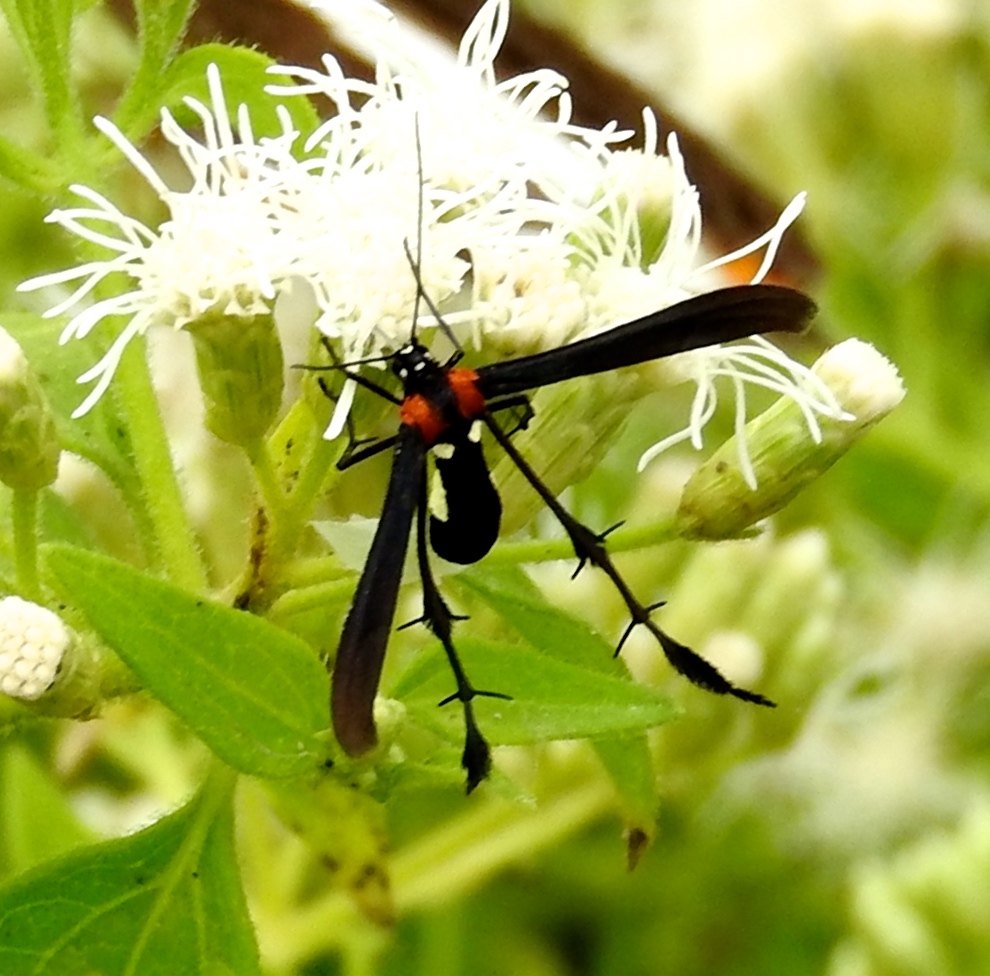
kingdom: Animalia
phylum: Arthropoda
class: Insecta
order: Lepidoptera
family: Pterophoridae
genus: Hellinsia
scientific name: Hellinsia chamelai
